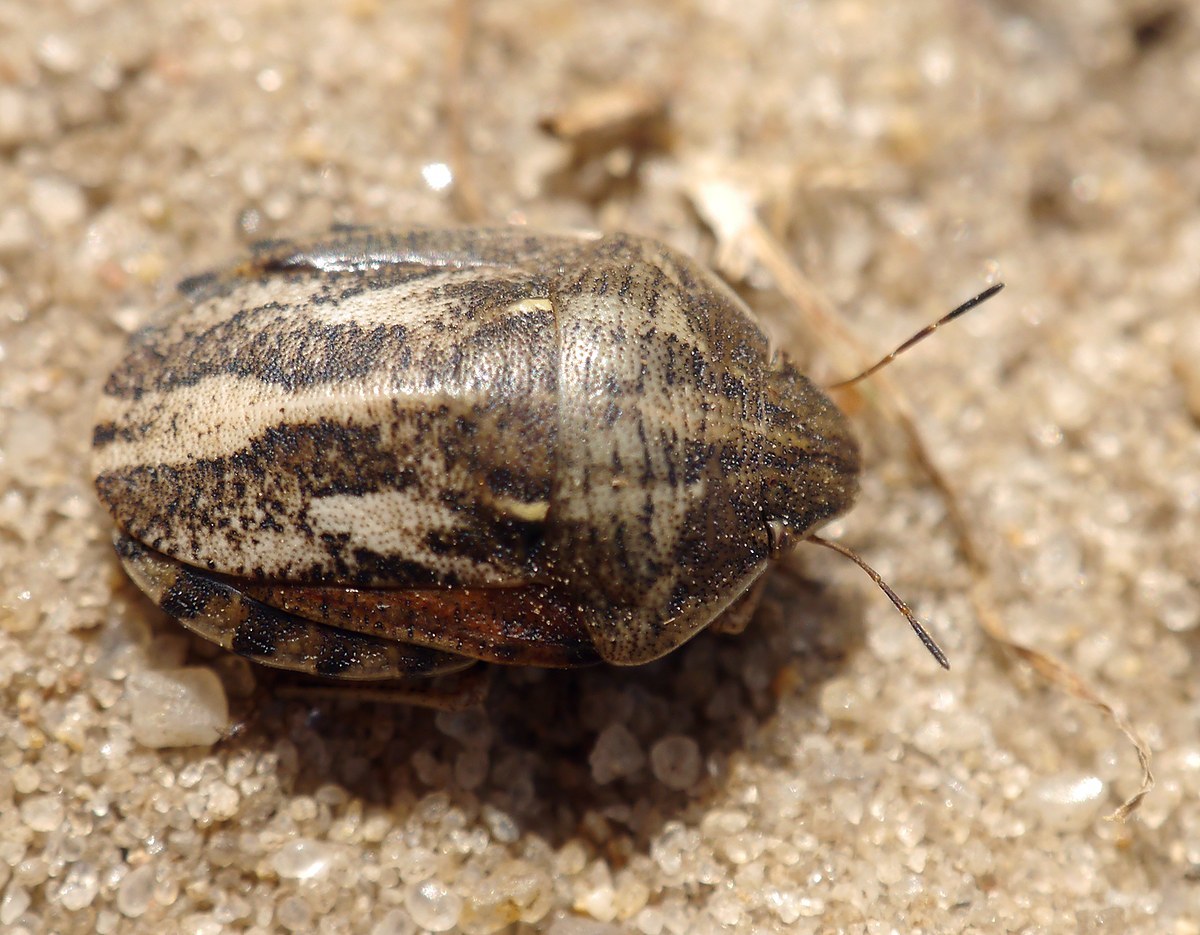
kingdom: Animalia
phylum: Arthropoda
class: Insecta
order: Hemiptera
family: Scutelleridae
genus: Eurygaster
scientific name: Eurygaster maura
